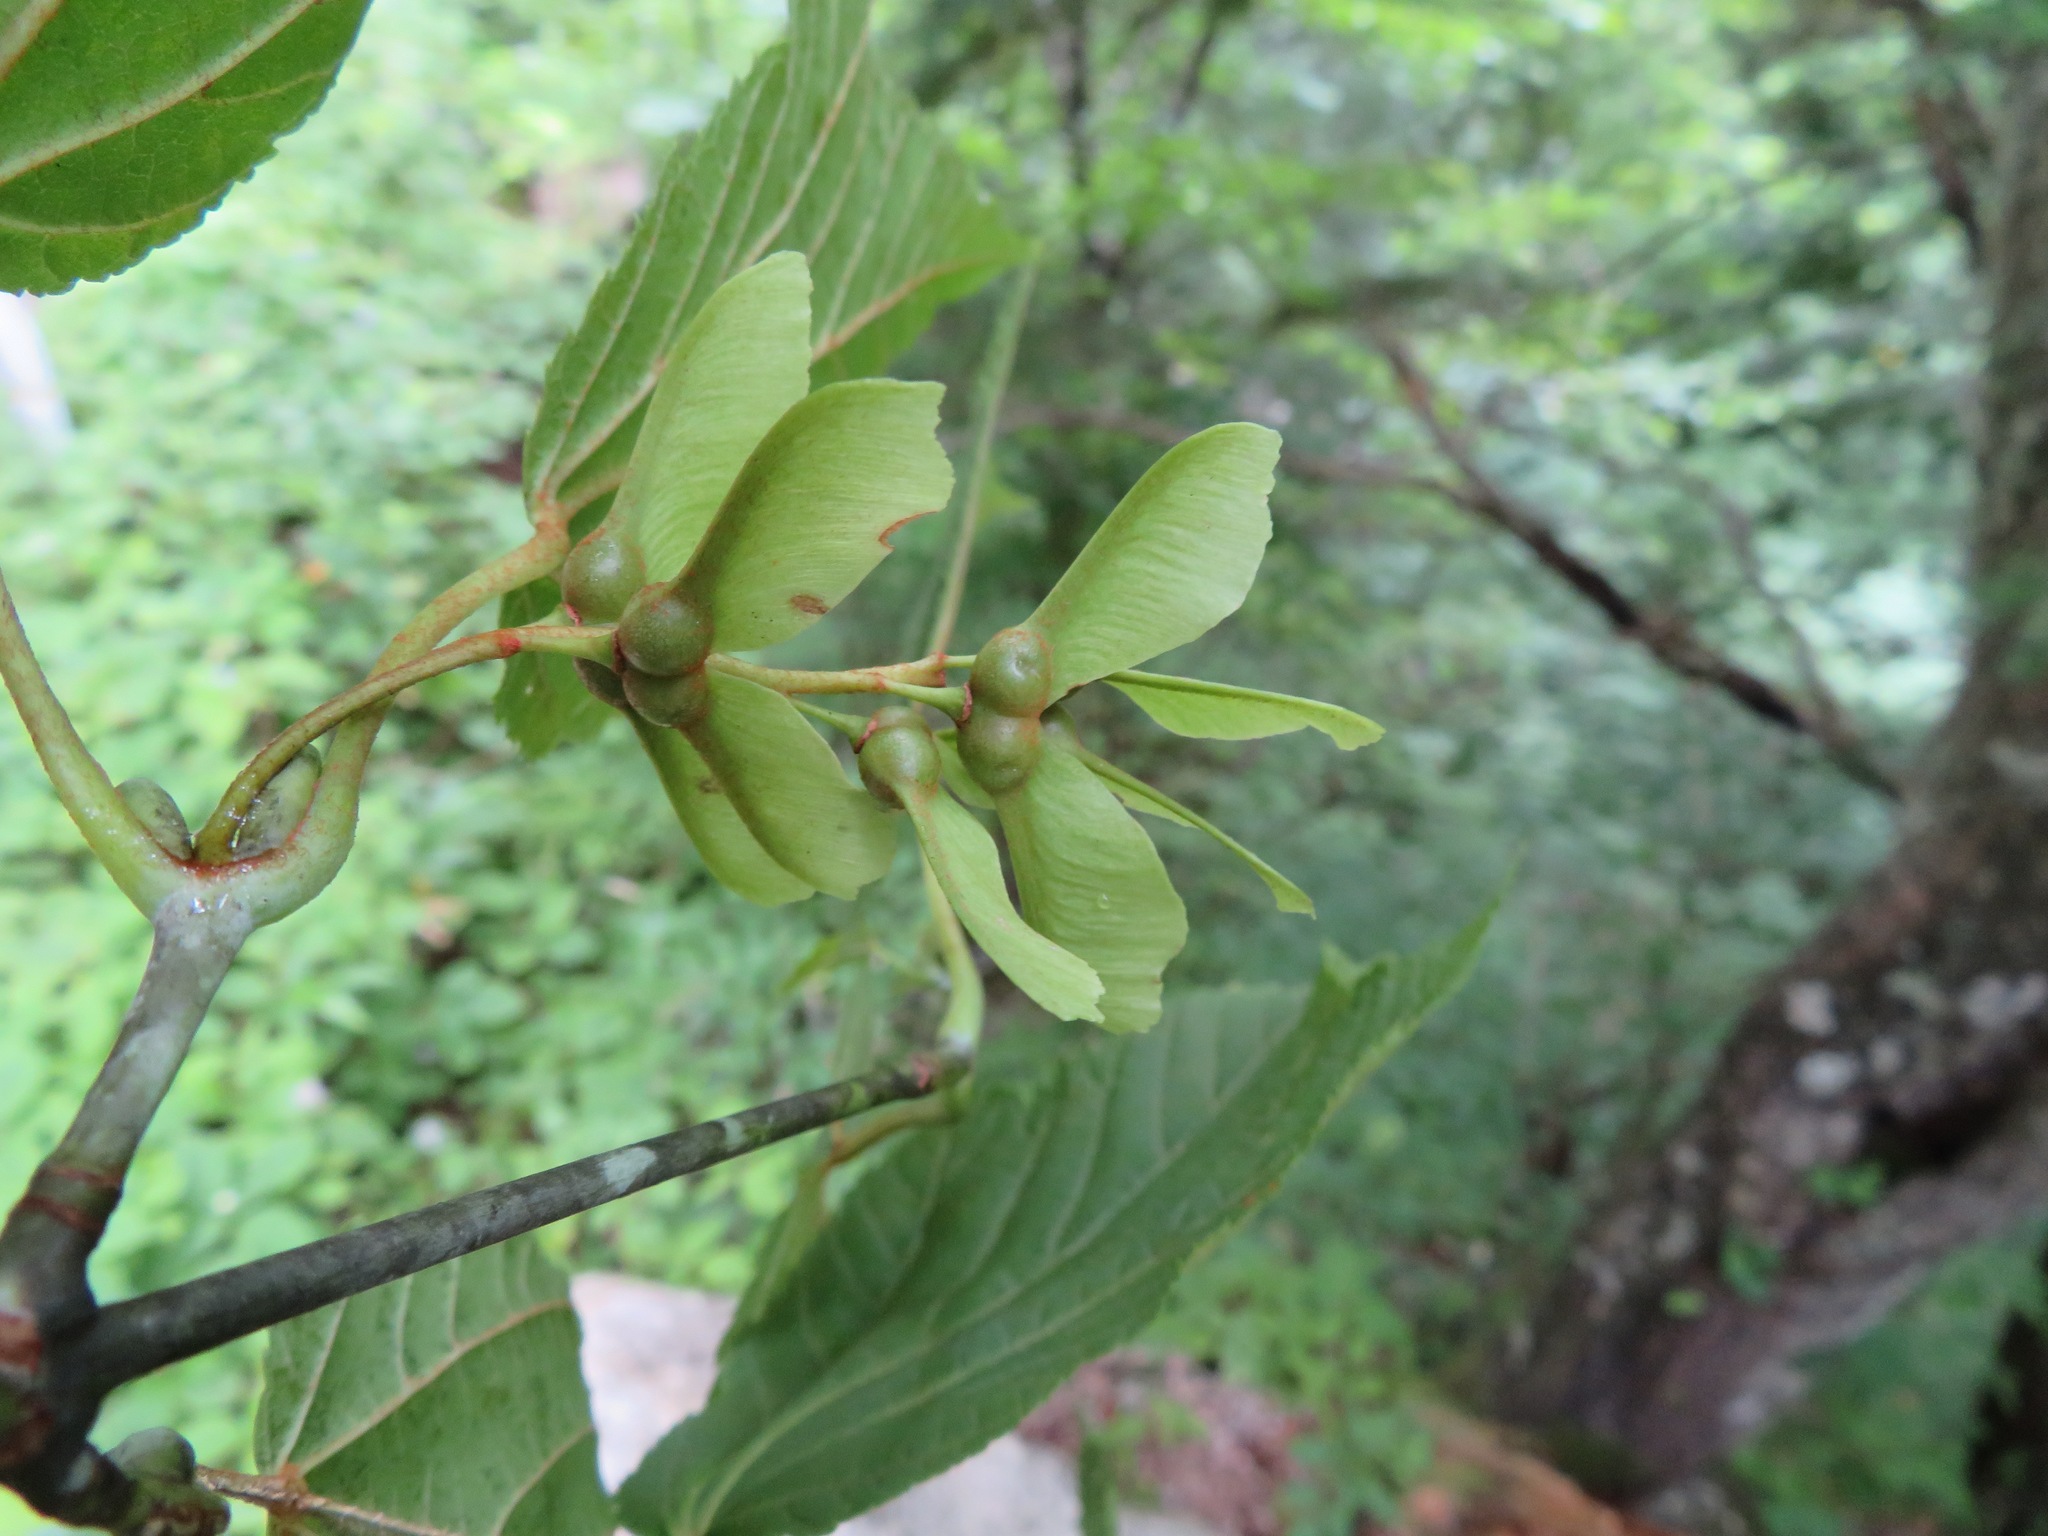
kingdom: Plantae
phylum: Tracheophyta
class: Magnoliopsida
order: Sapindales
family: Sapindaceae
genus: Acer
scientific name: Acer rufinerve
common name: Red veined maple
